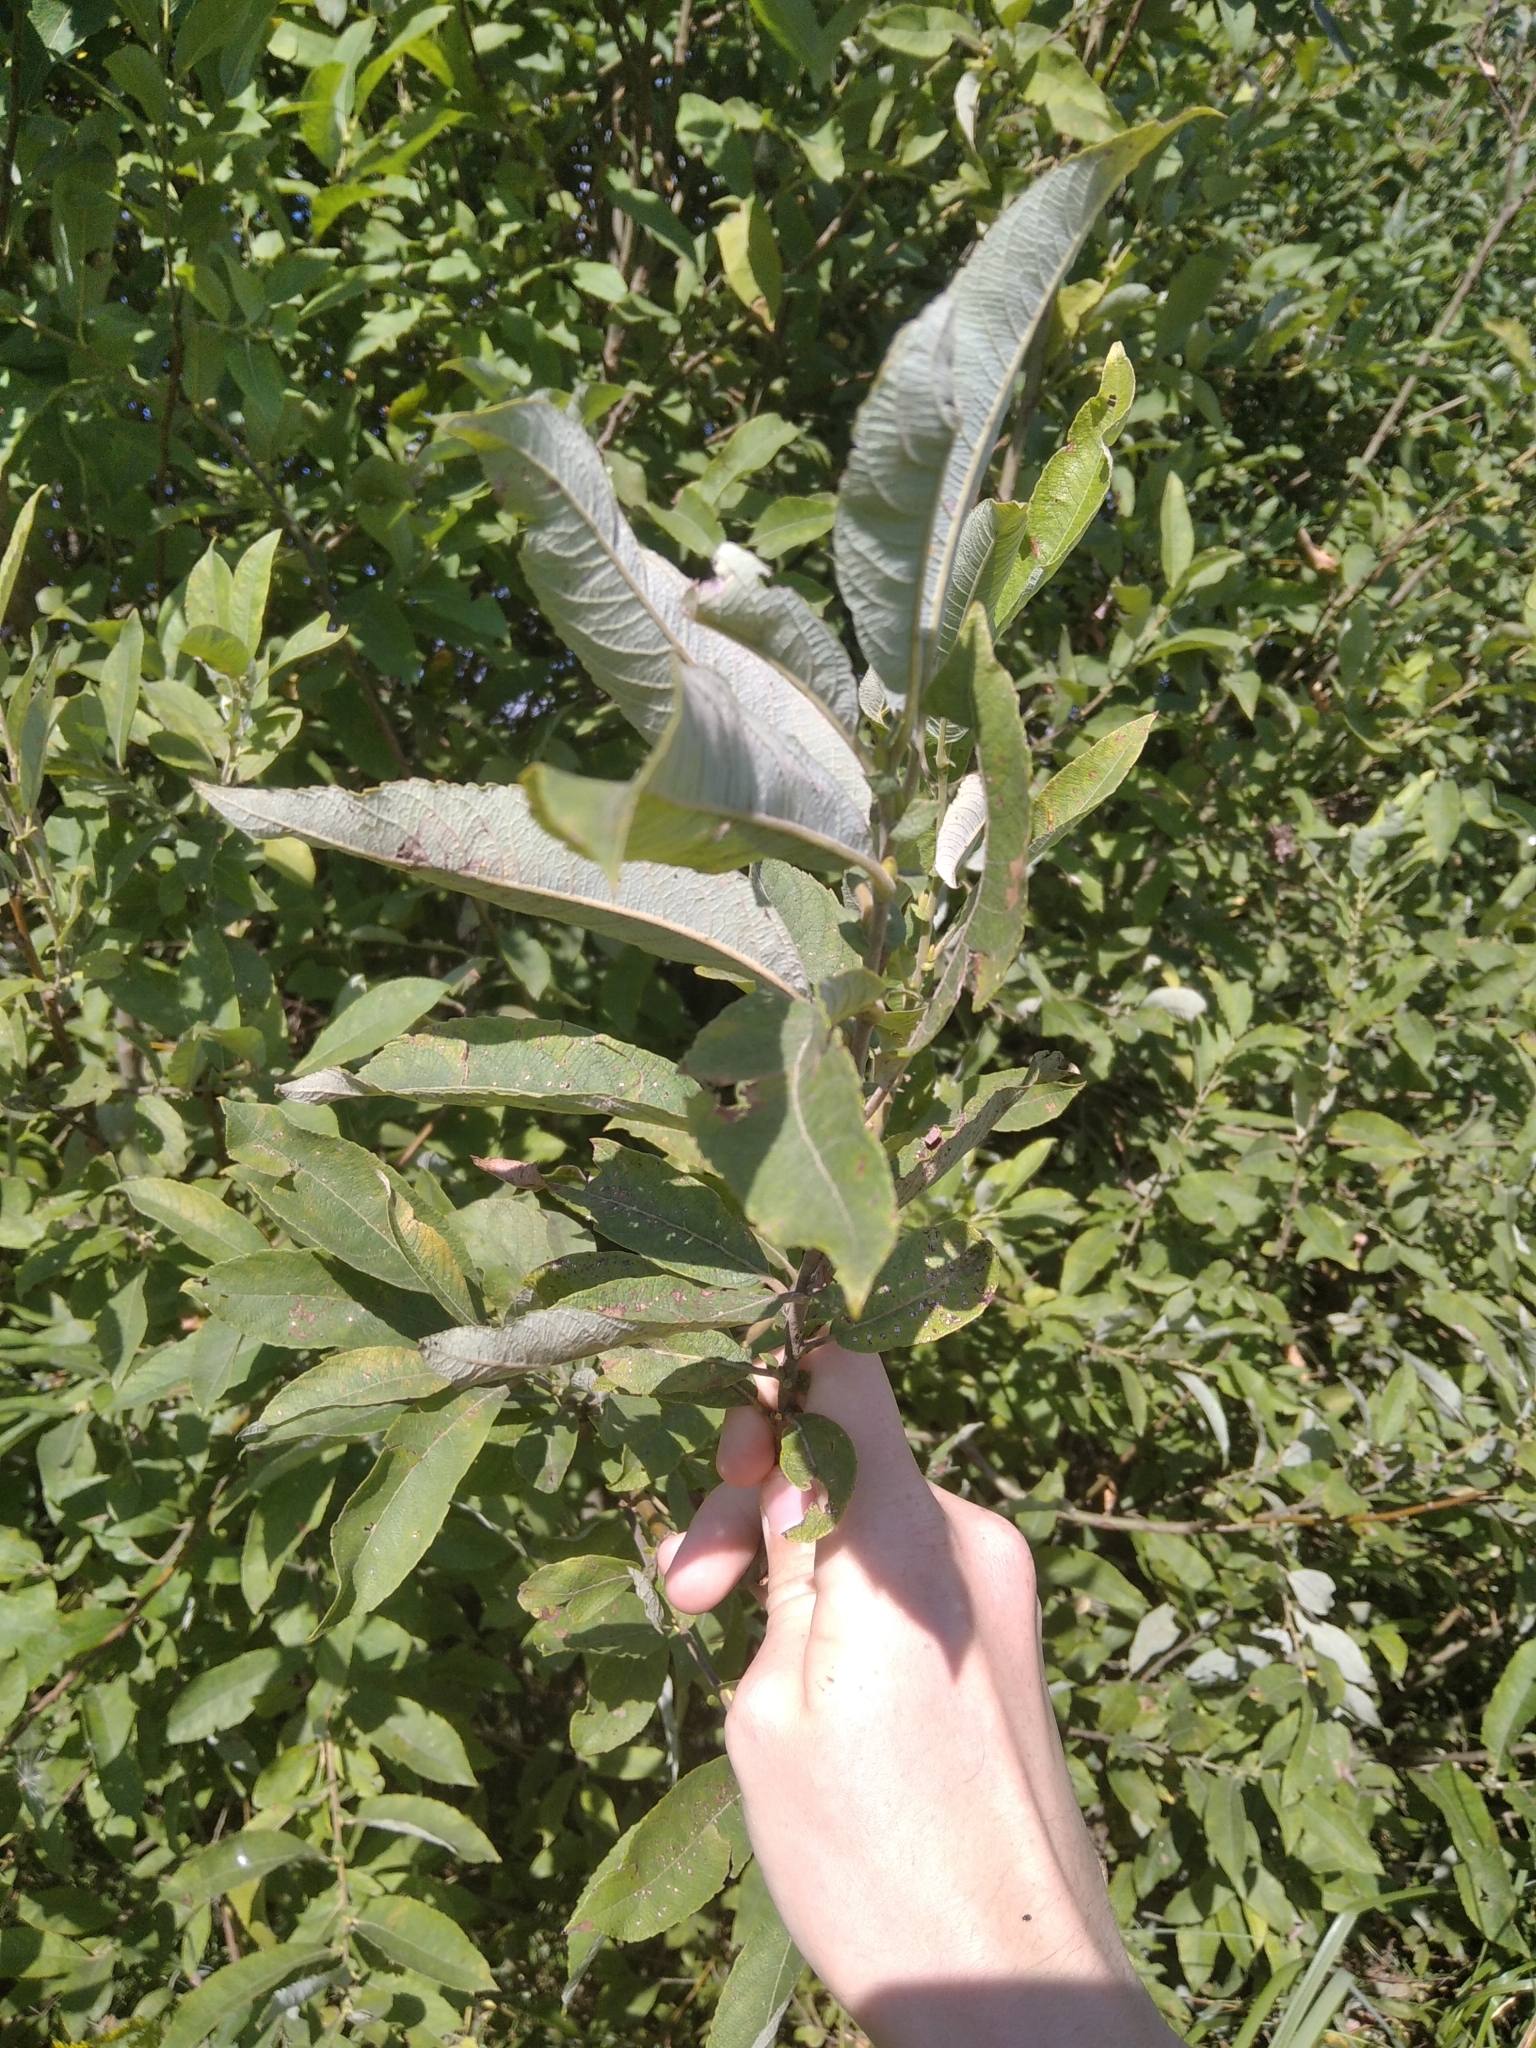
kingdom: Plantae
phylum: Tracheophyta
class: Magnoliopsida
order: Malpighiales
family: Salicaceae
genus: Salix
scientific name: Salix cinerea
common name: Common sallow
